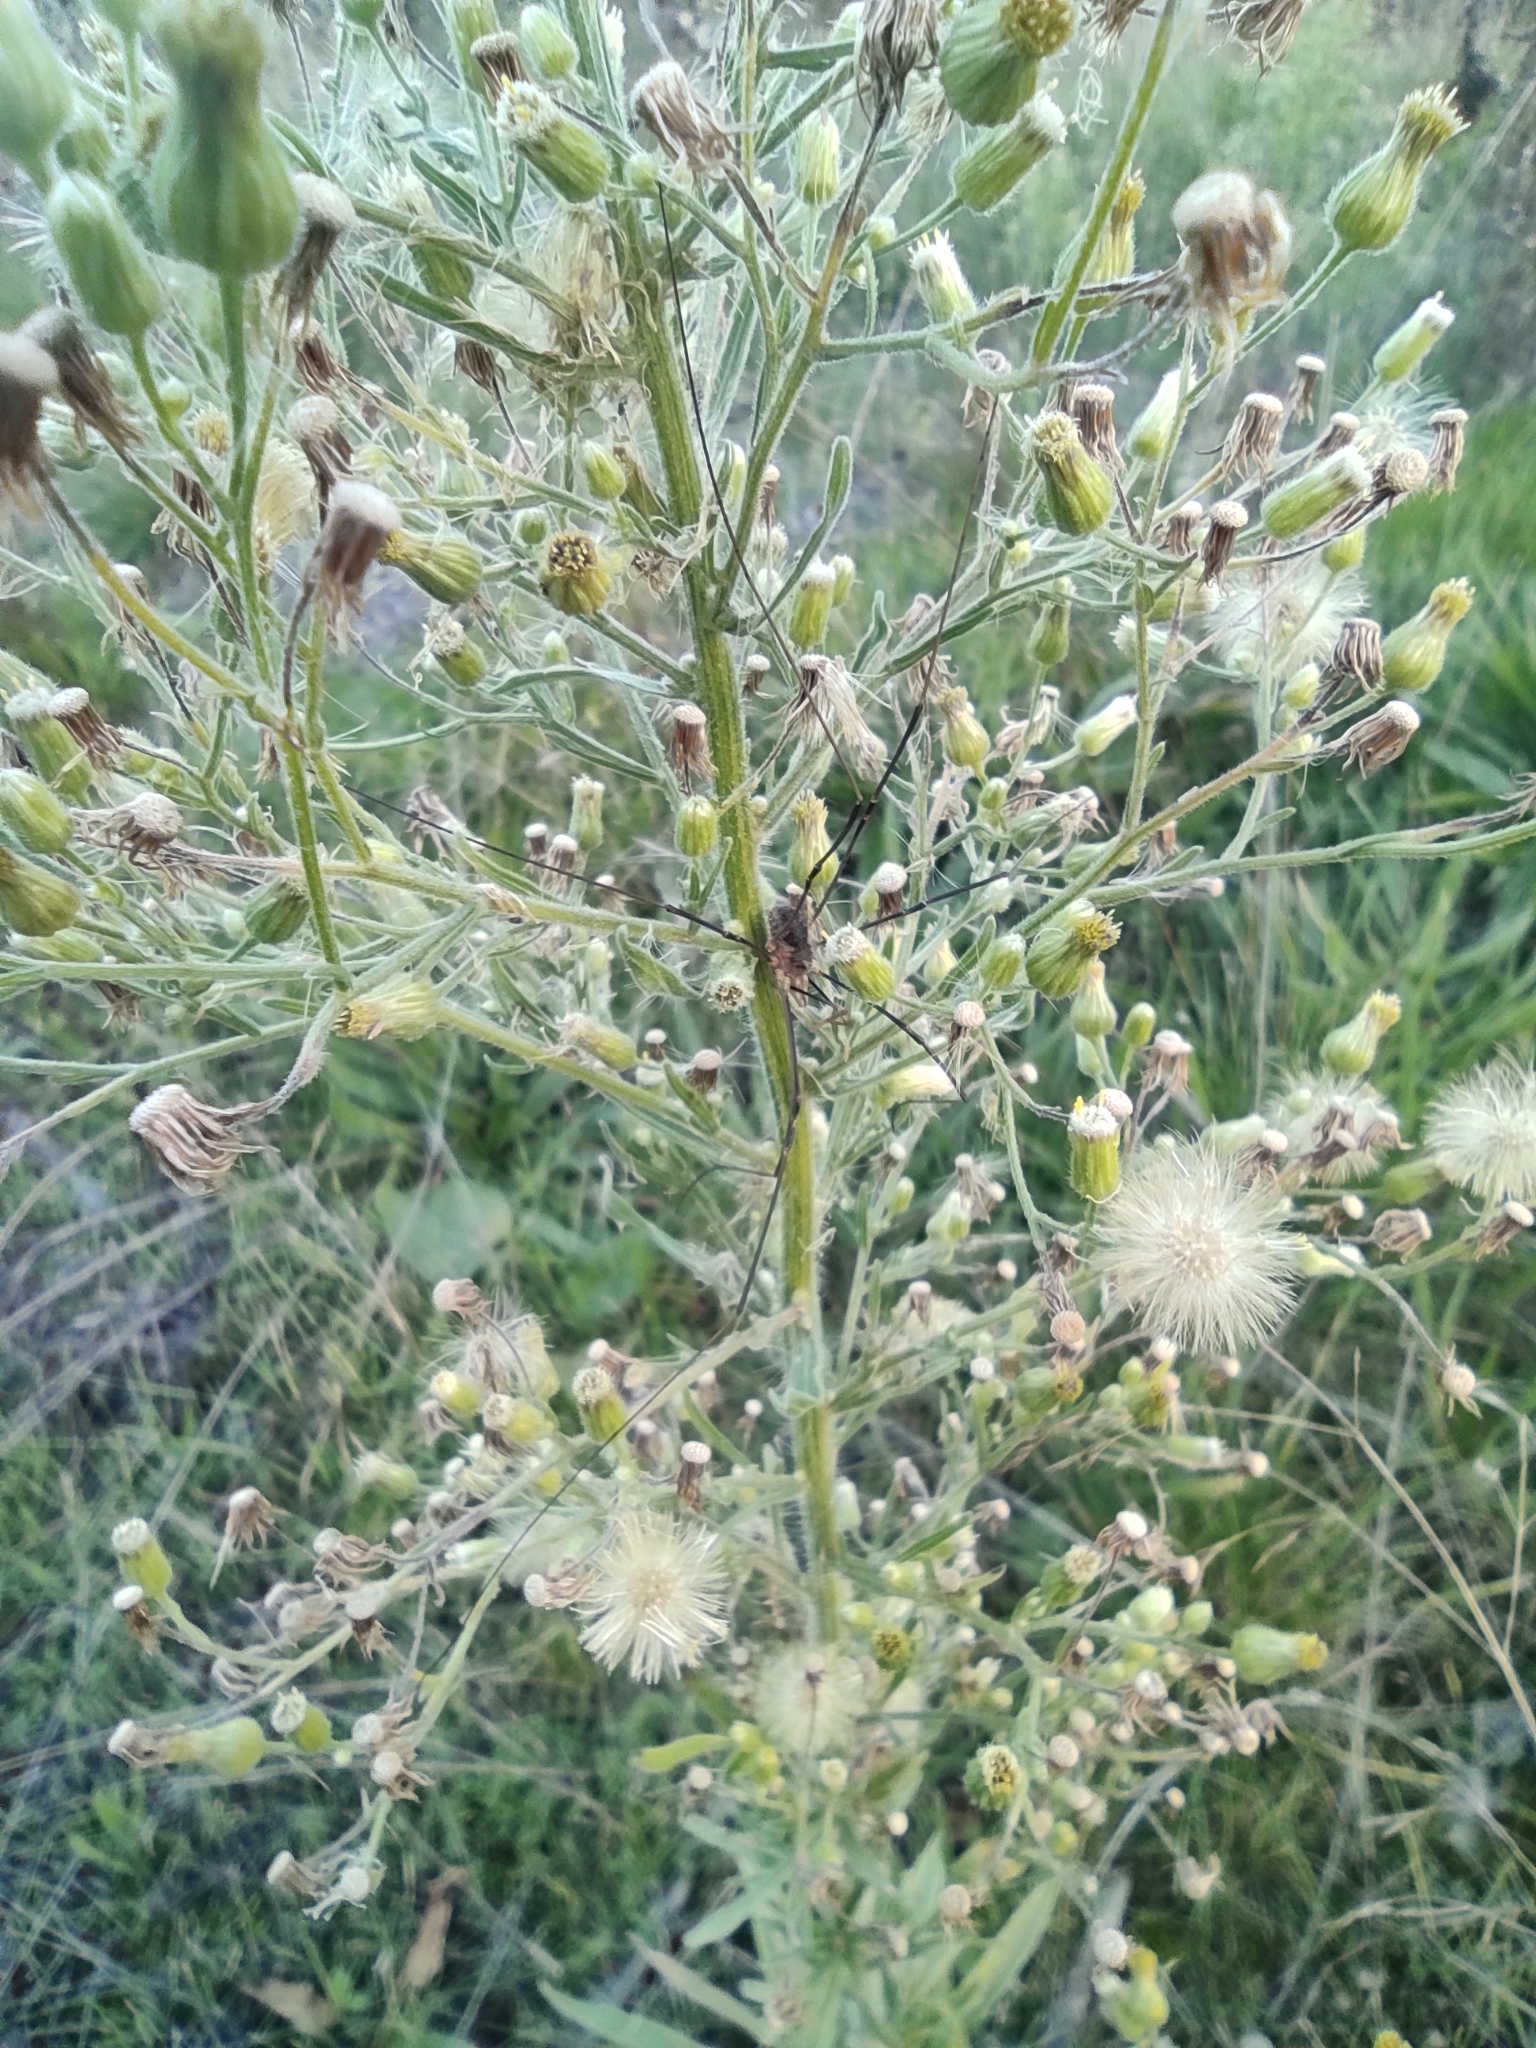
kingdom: Plantae
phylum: Tracheophyta
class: Magnoliopsida
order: Asterales
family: Asteraceae
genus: Erigeron
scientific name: Erigeron sumatrensis
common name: Daisy
